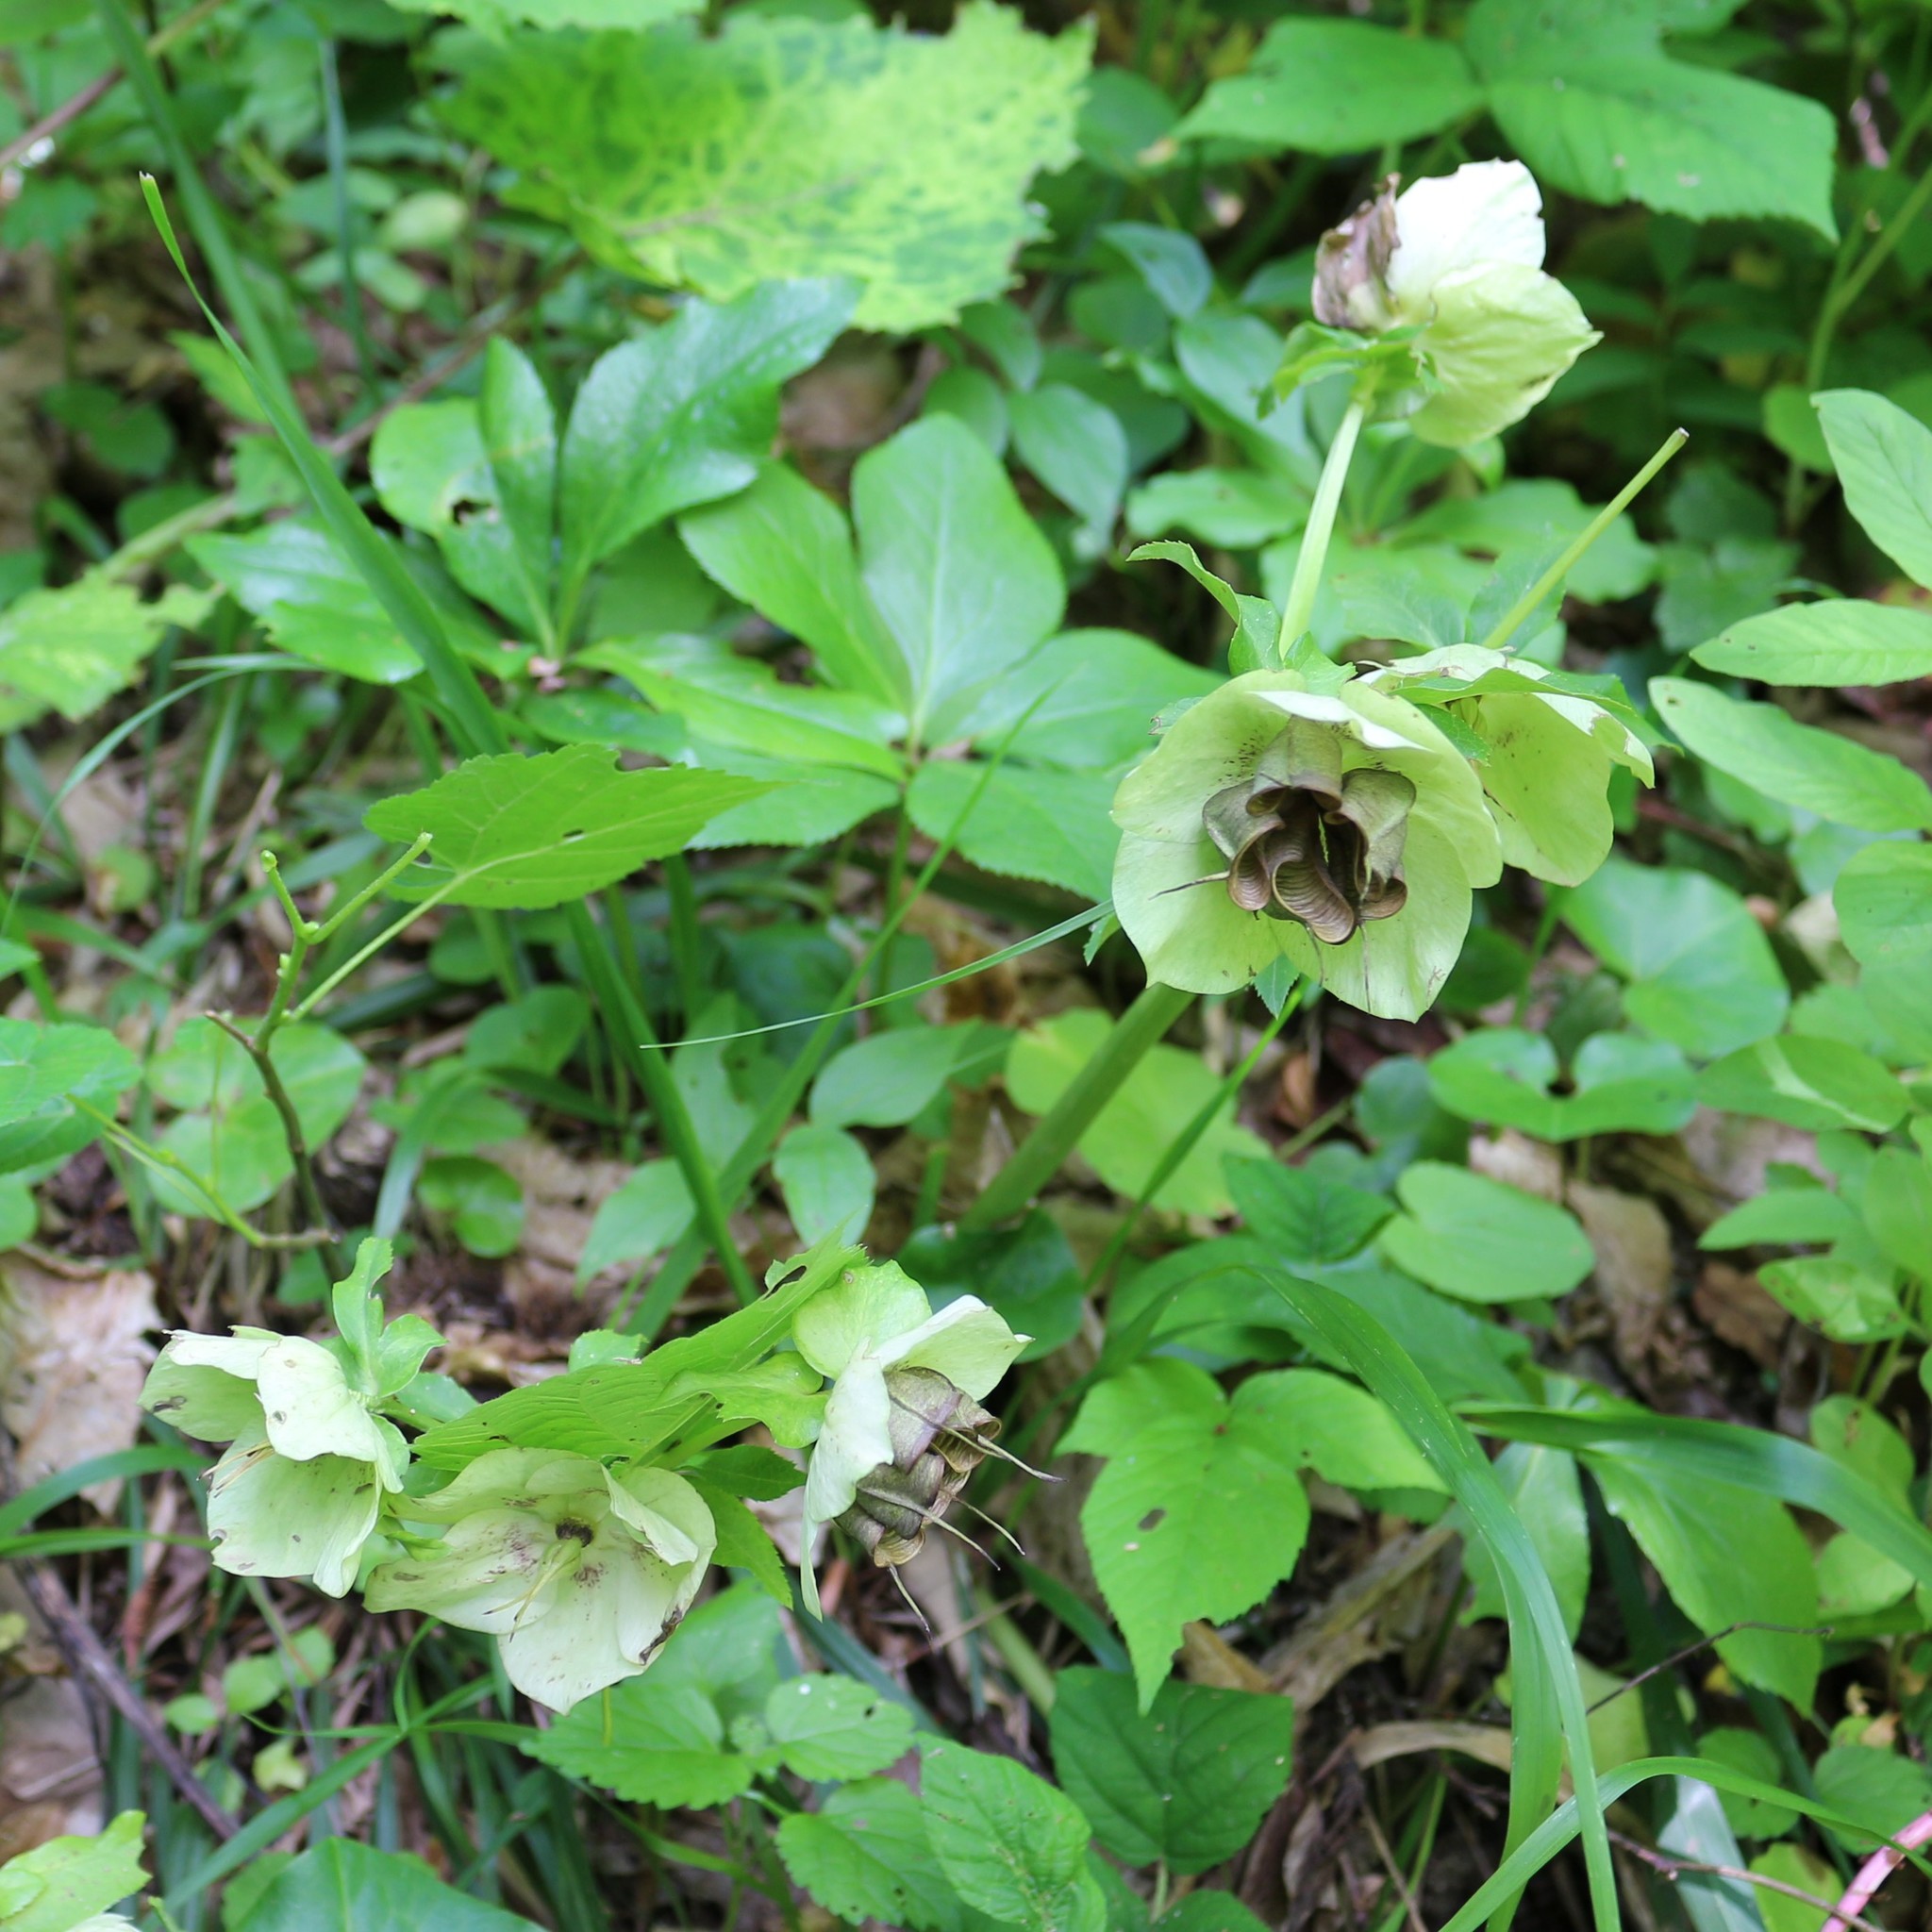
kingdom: Plantae
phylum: Tracheophyta
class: Magnoliopsida
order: Ranunculales
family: Ranunculaceae
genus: Helleborus
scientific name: Helleborus orientalis
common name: Lenten-rose
